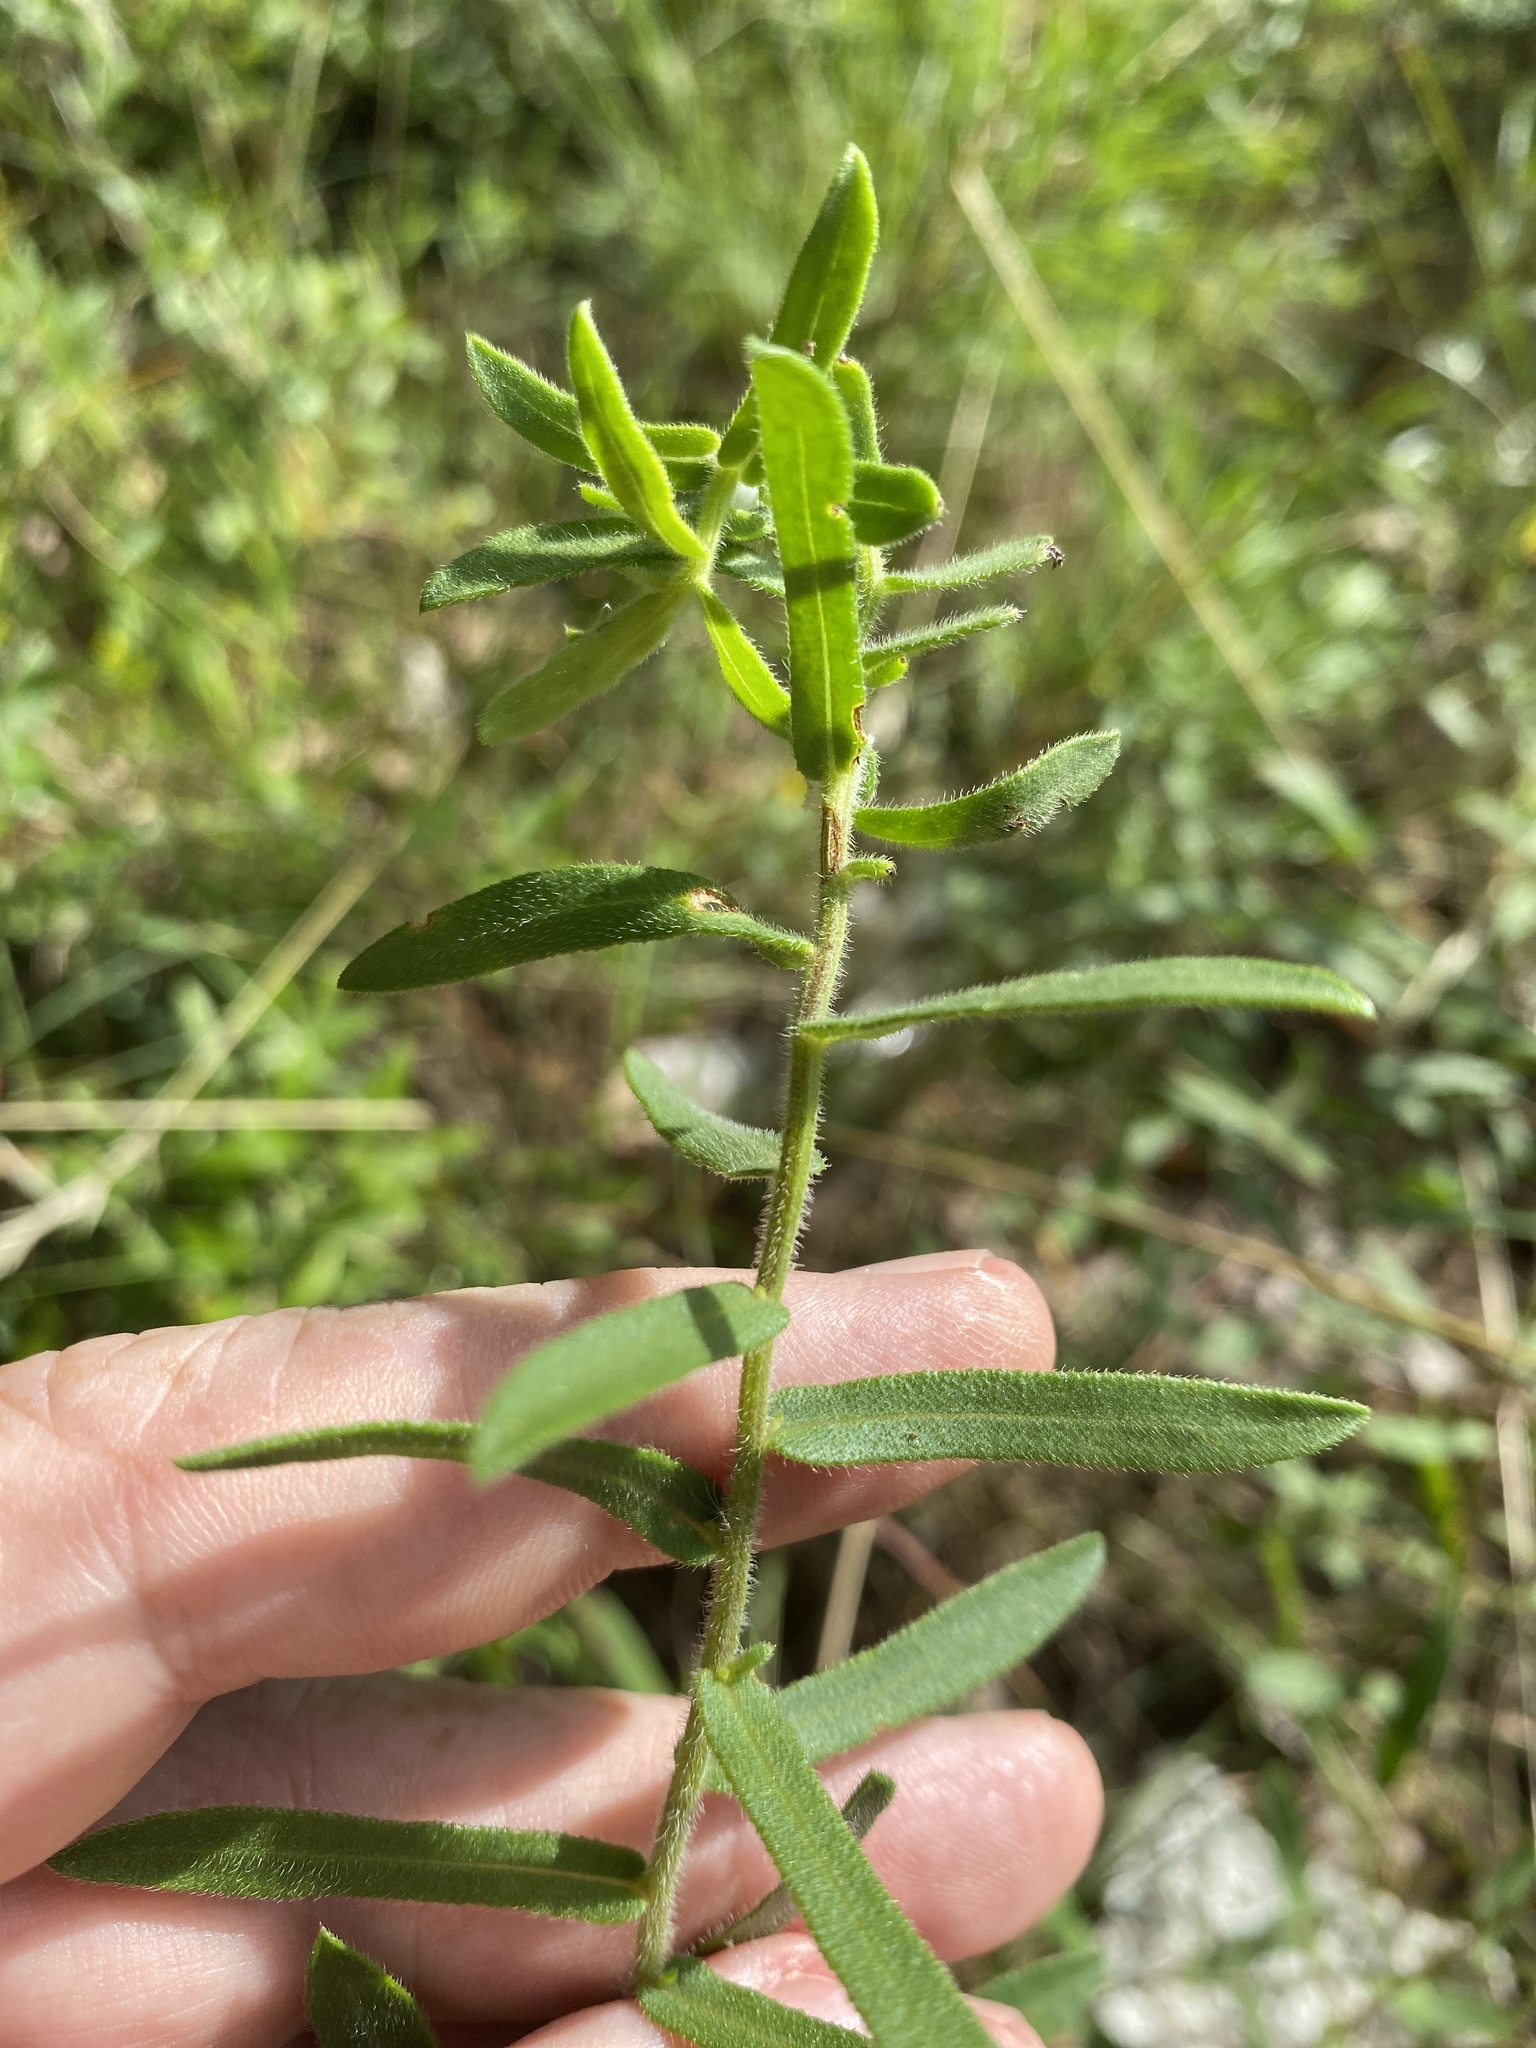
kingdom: Plantae
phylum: Tracheophyta
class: Magnoliopsida
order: Asterales
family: Asteraceae
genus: Symphyotrichum
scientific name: Symphyotrichum grandiflorum
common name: Big-head aster
